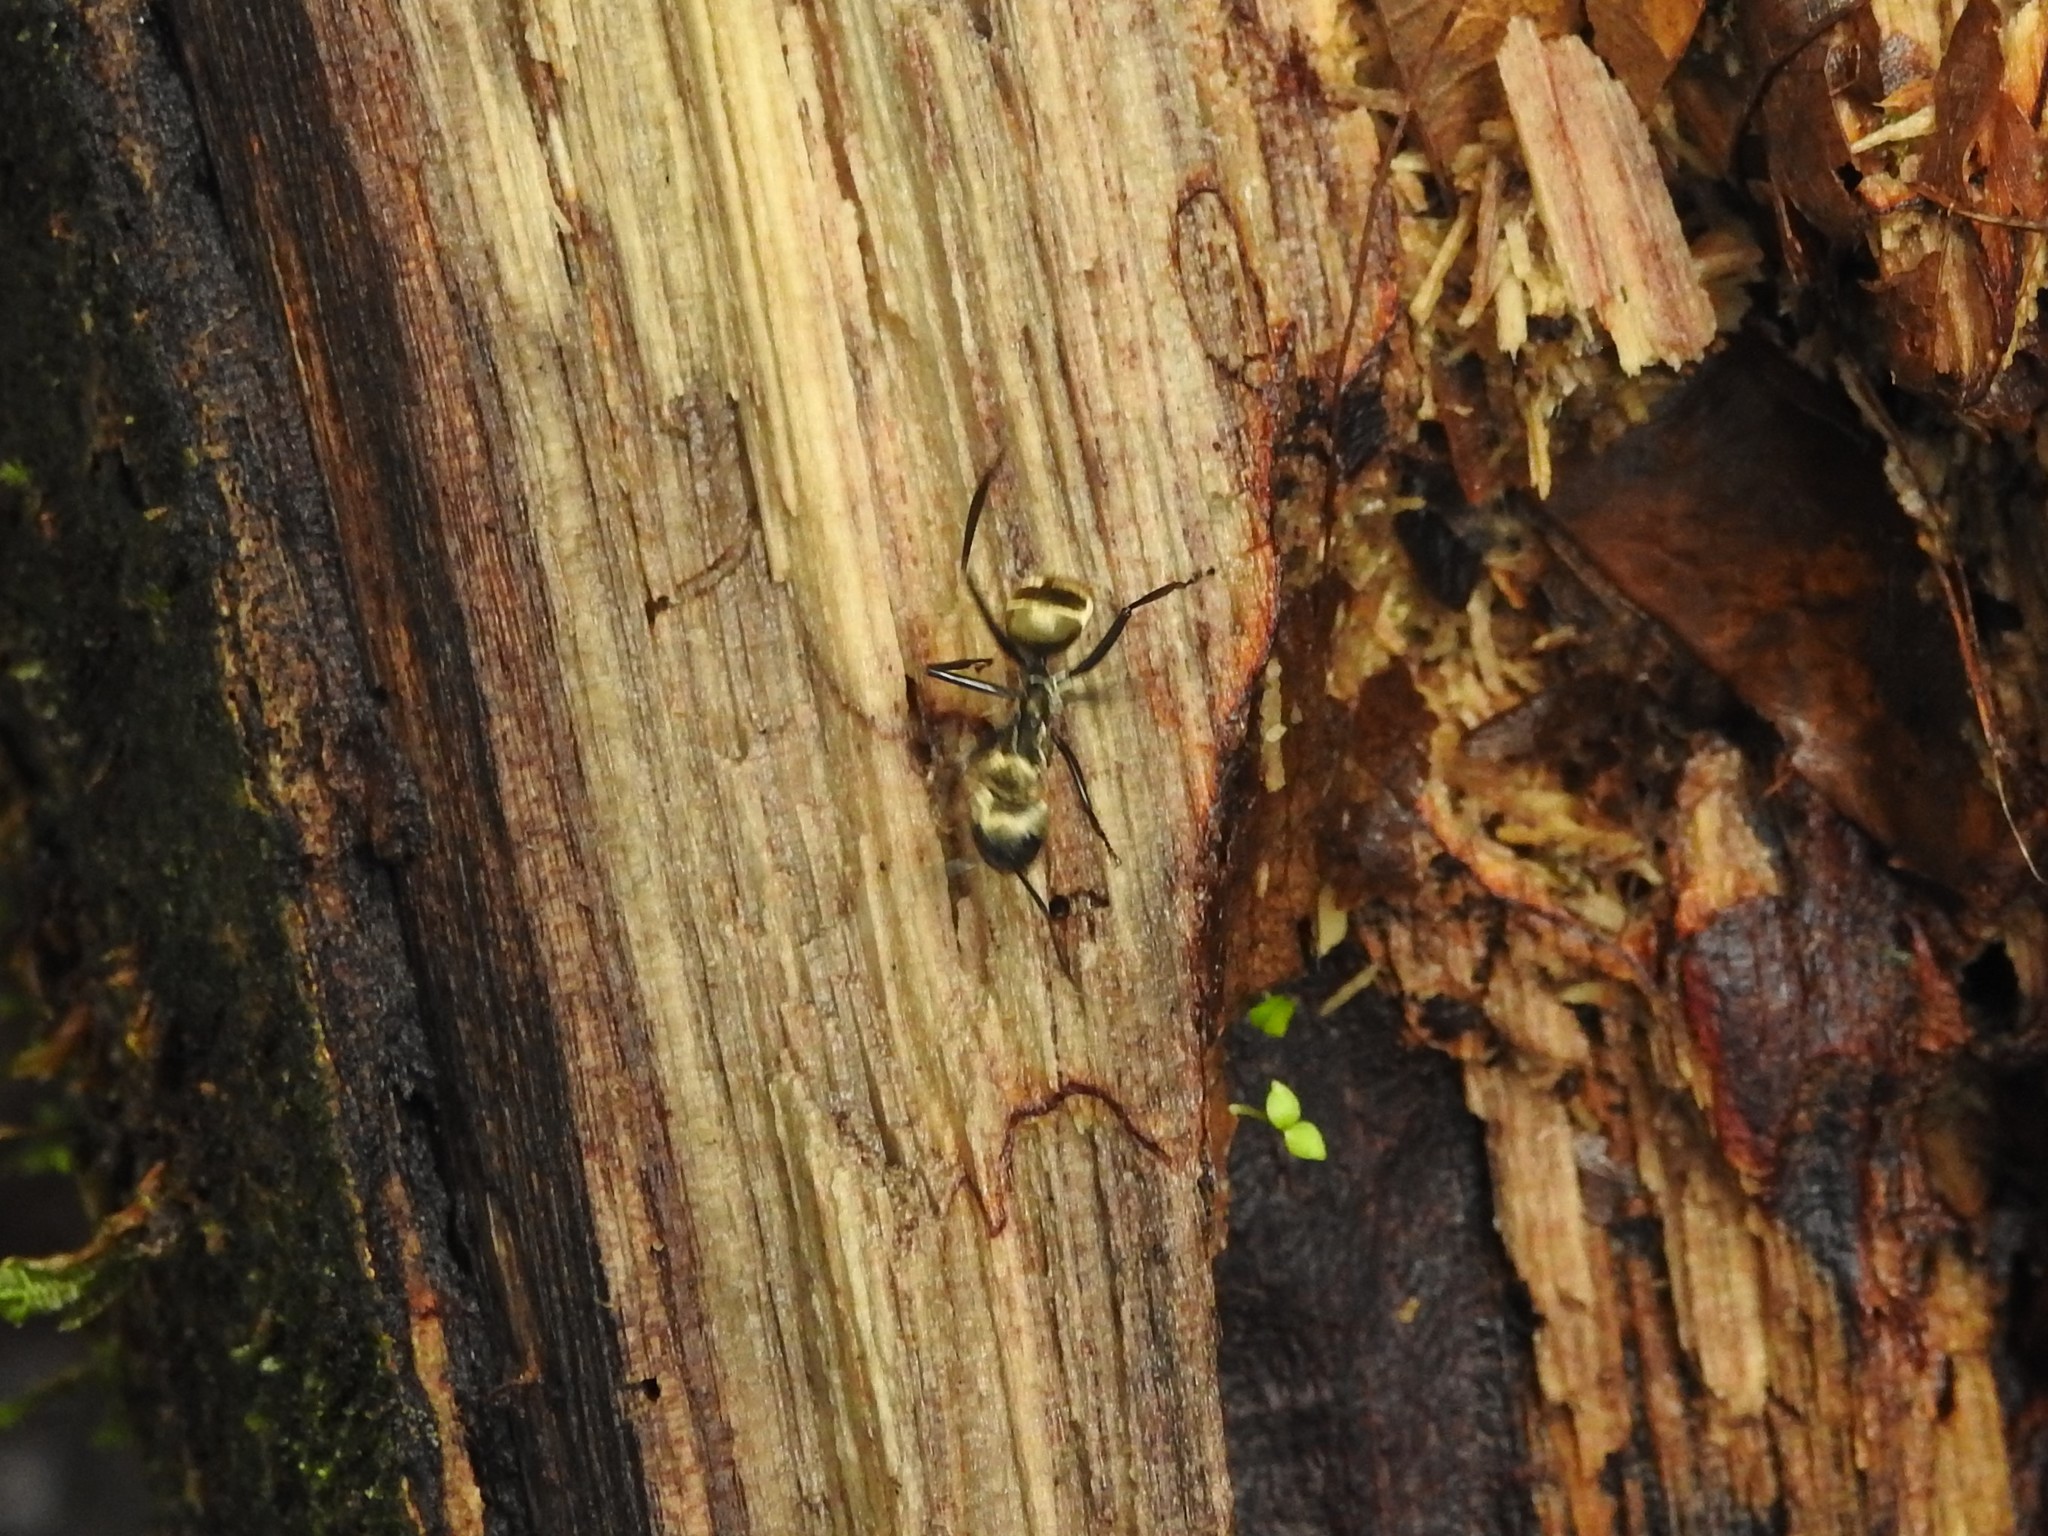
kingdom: Animalia
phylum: Arthropoda
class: Insecta
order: Hymenoptera
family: Formicidae
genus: Camponotus
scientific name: Camponotus sericeiventris
